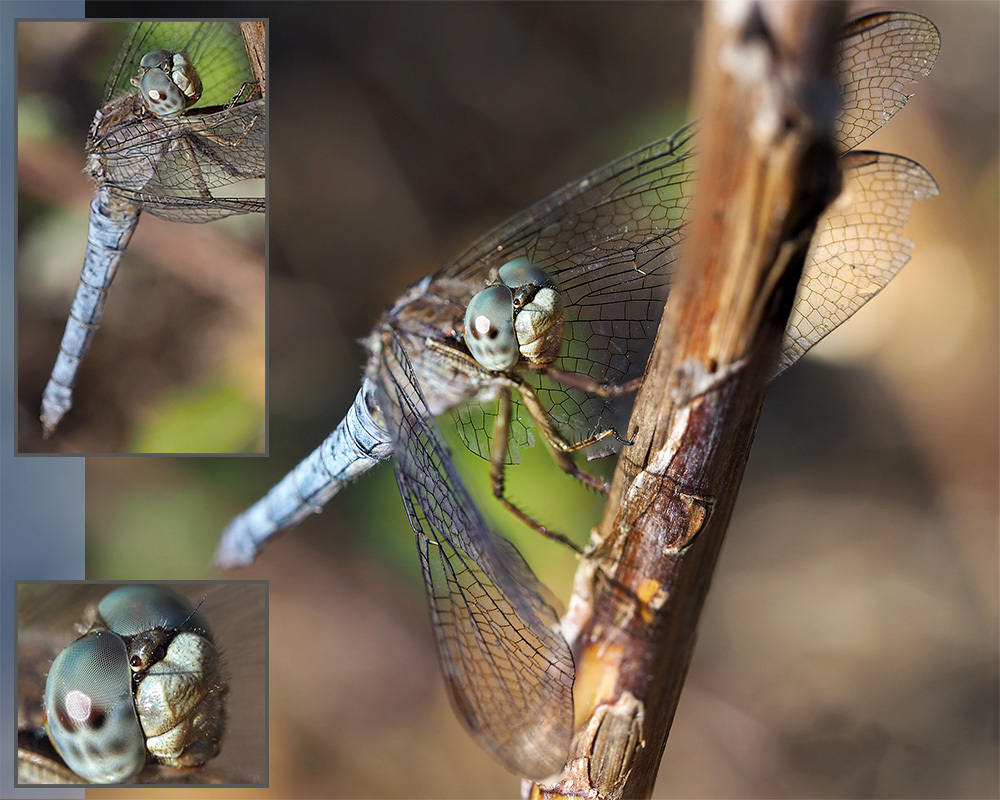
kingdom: Animalia
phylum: Arthropoda
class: Insecta
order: Odonata
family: Libellulidae
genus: Orthetrum
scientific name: Orthetrum coerulescens
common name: Keeled skimmer
